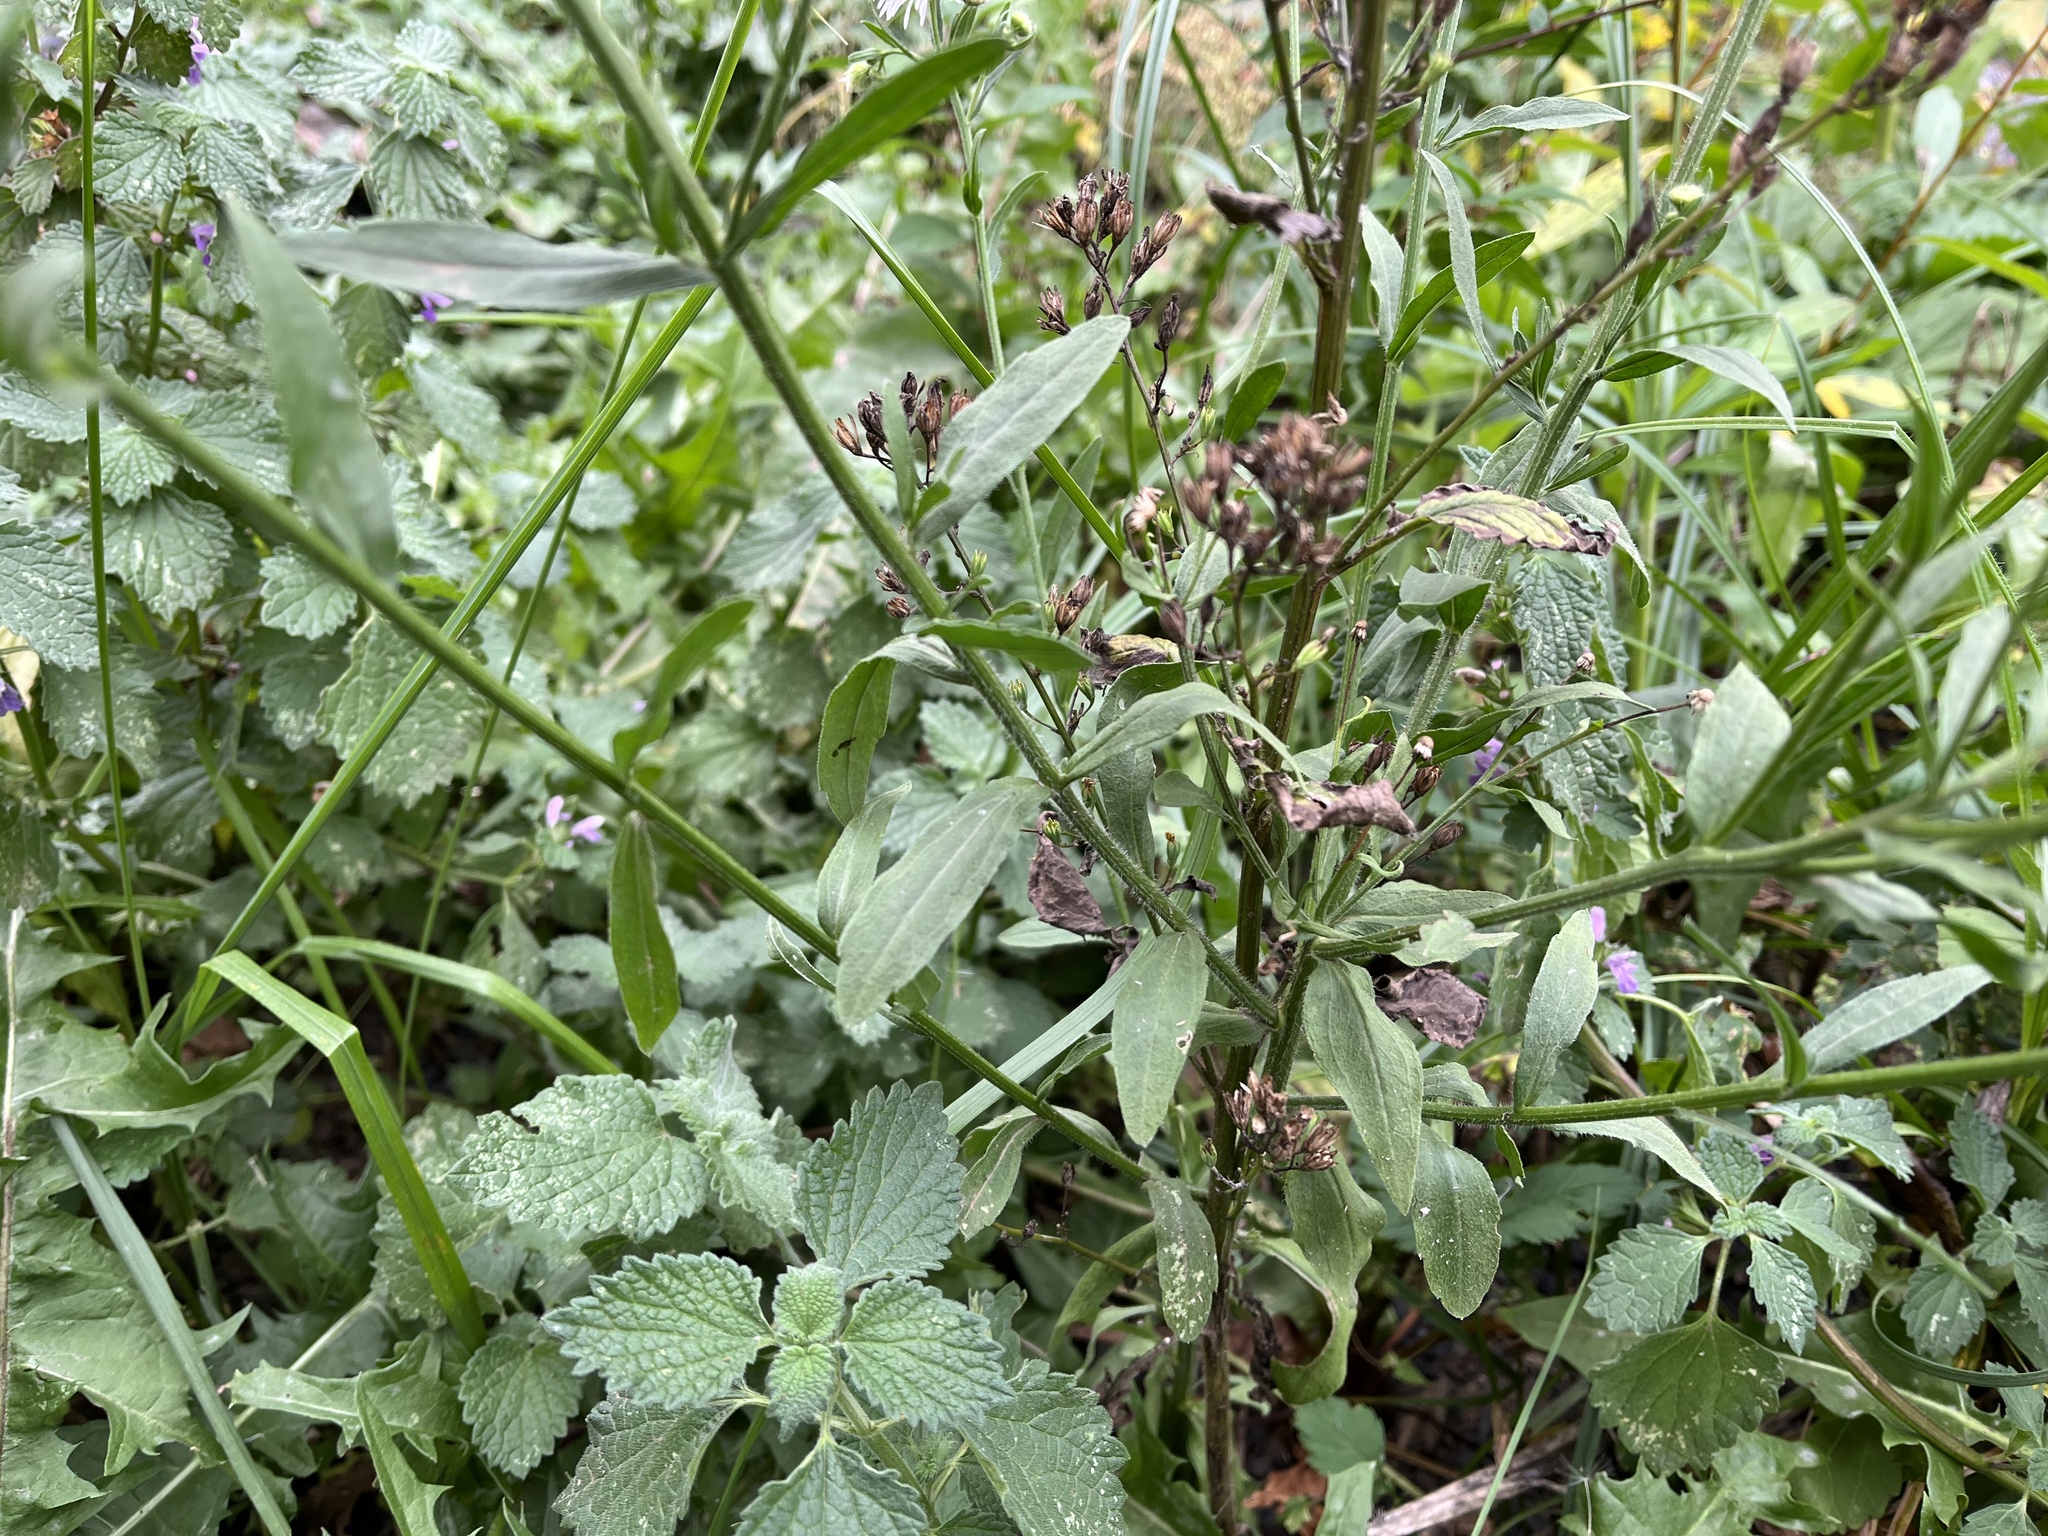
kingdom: Plantae
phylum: Tracheophyta
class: Magnoliopsida
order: Asterales
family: Asteraceae
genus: Erigeron
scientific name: Erigeron annuus
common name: Tall fleabane
